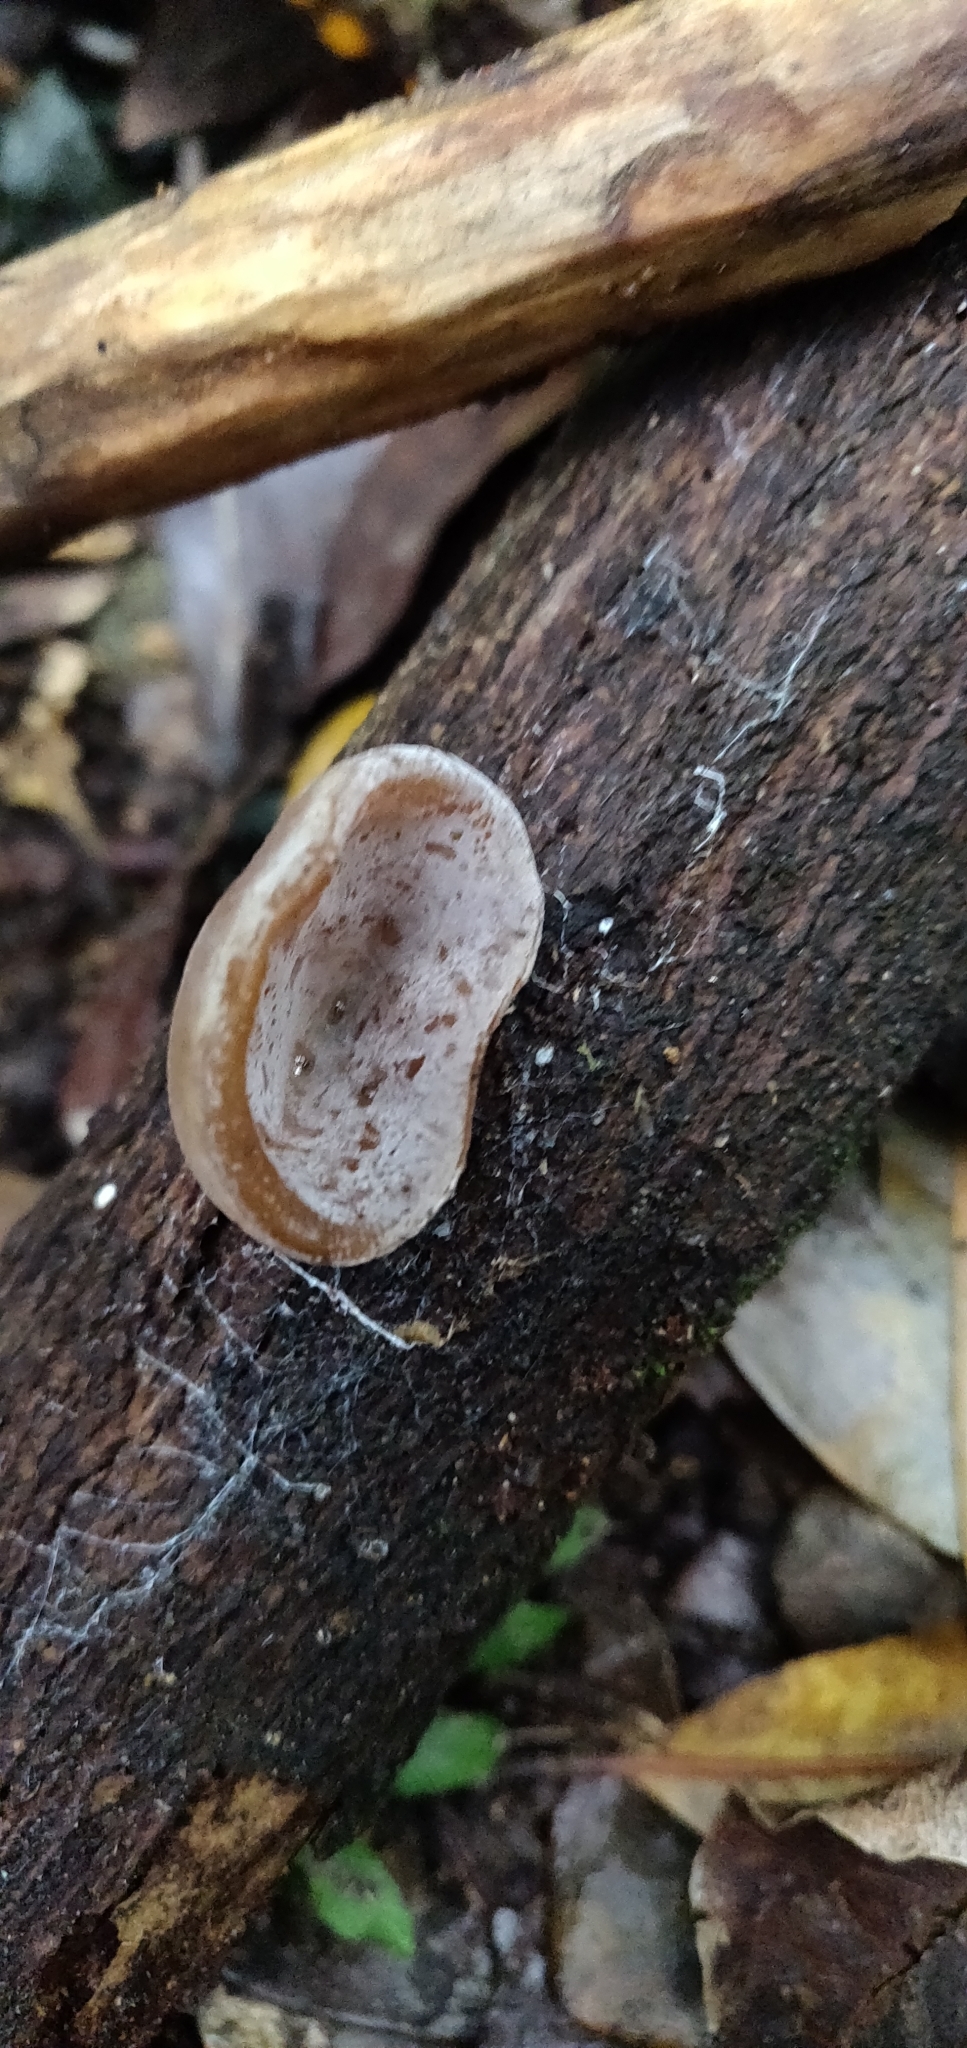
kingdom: Fungi
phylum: Basidiomycota
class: Agaricomycetes
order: Auriculariales
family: Auriculariaceae
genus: Auricularia
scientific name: Auricularia cornea
